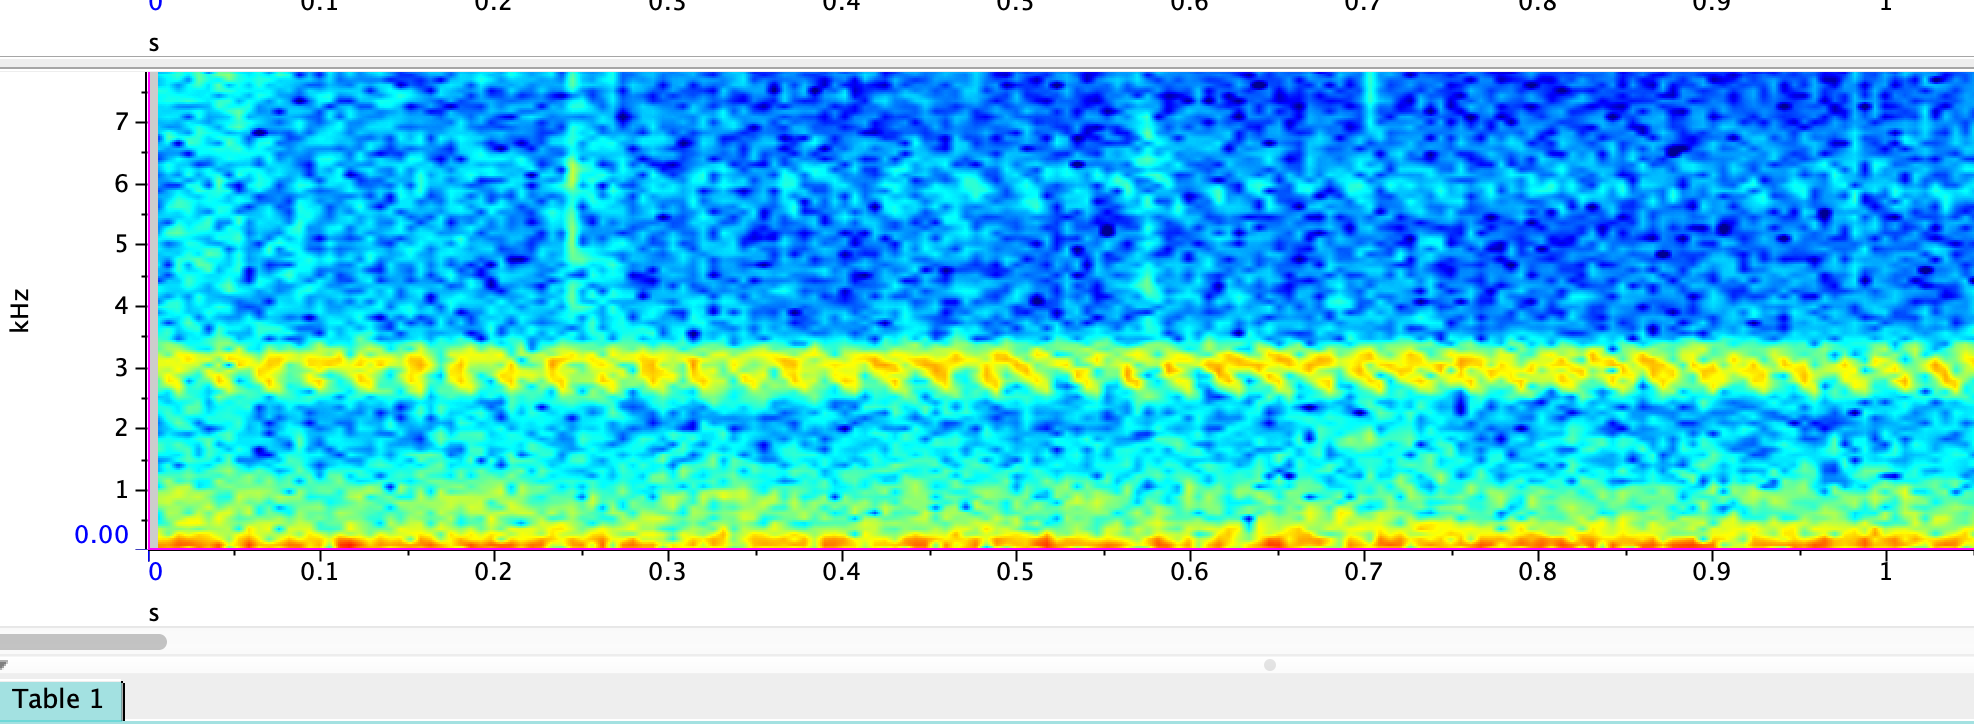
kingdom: Animalia
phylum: Arthropoda
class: Insecta
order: Orthoptera
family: Gryllidae
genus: Oecanthus
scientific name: Oecanthus californicus
